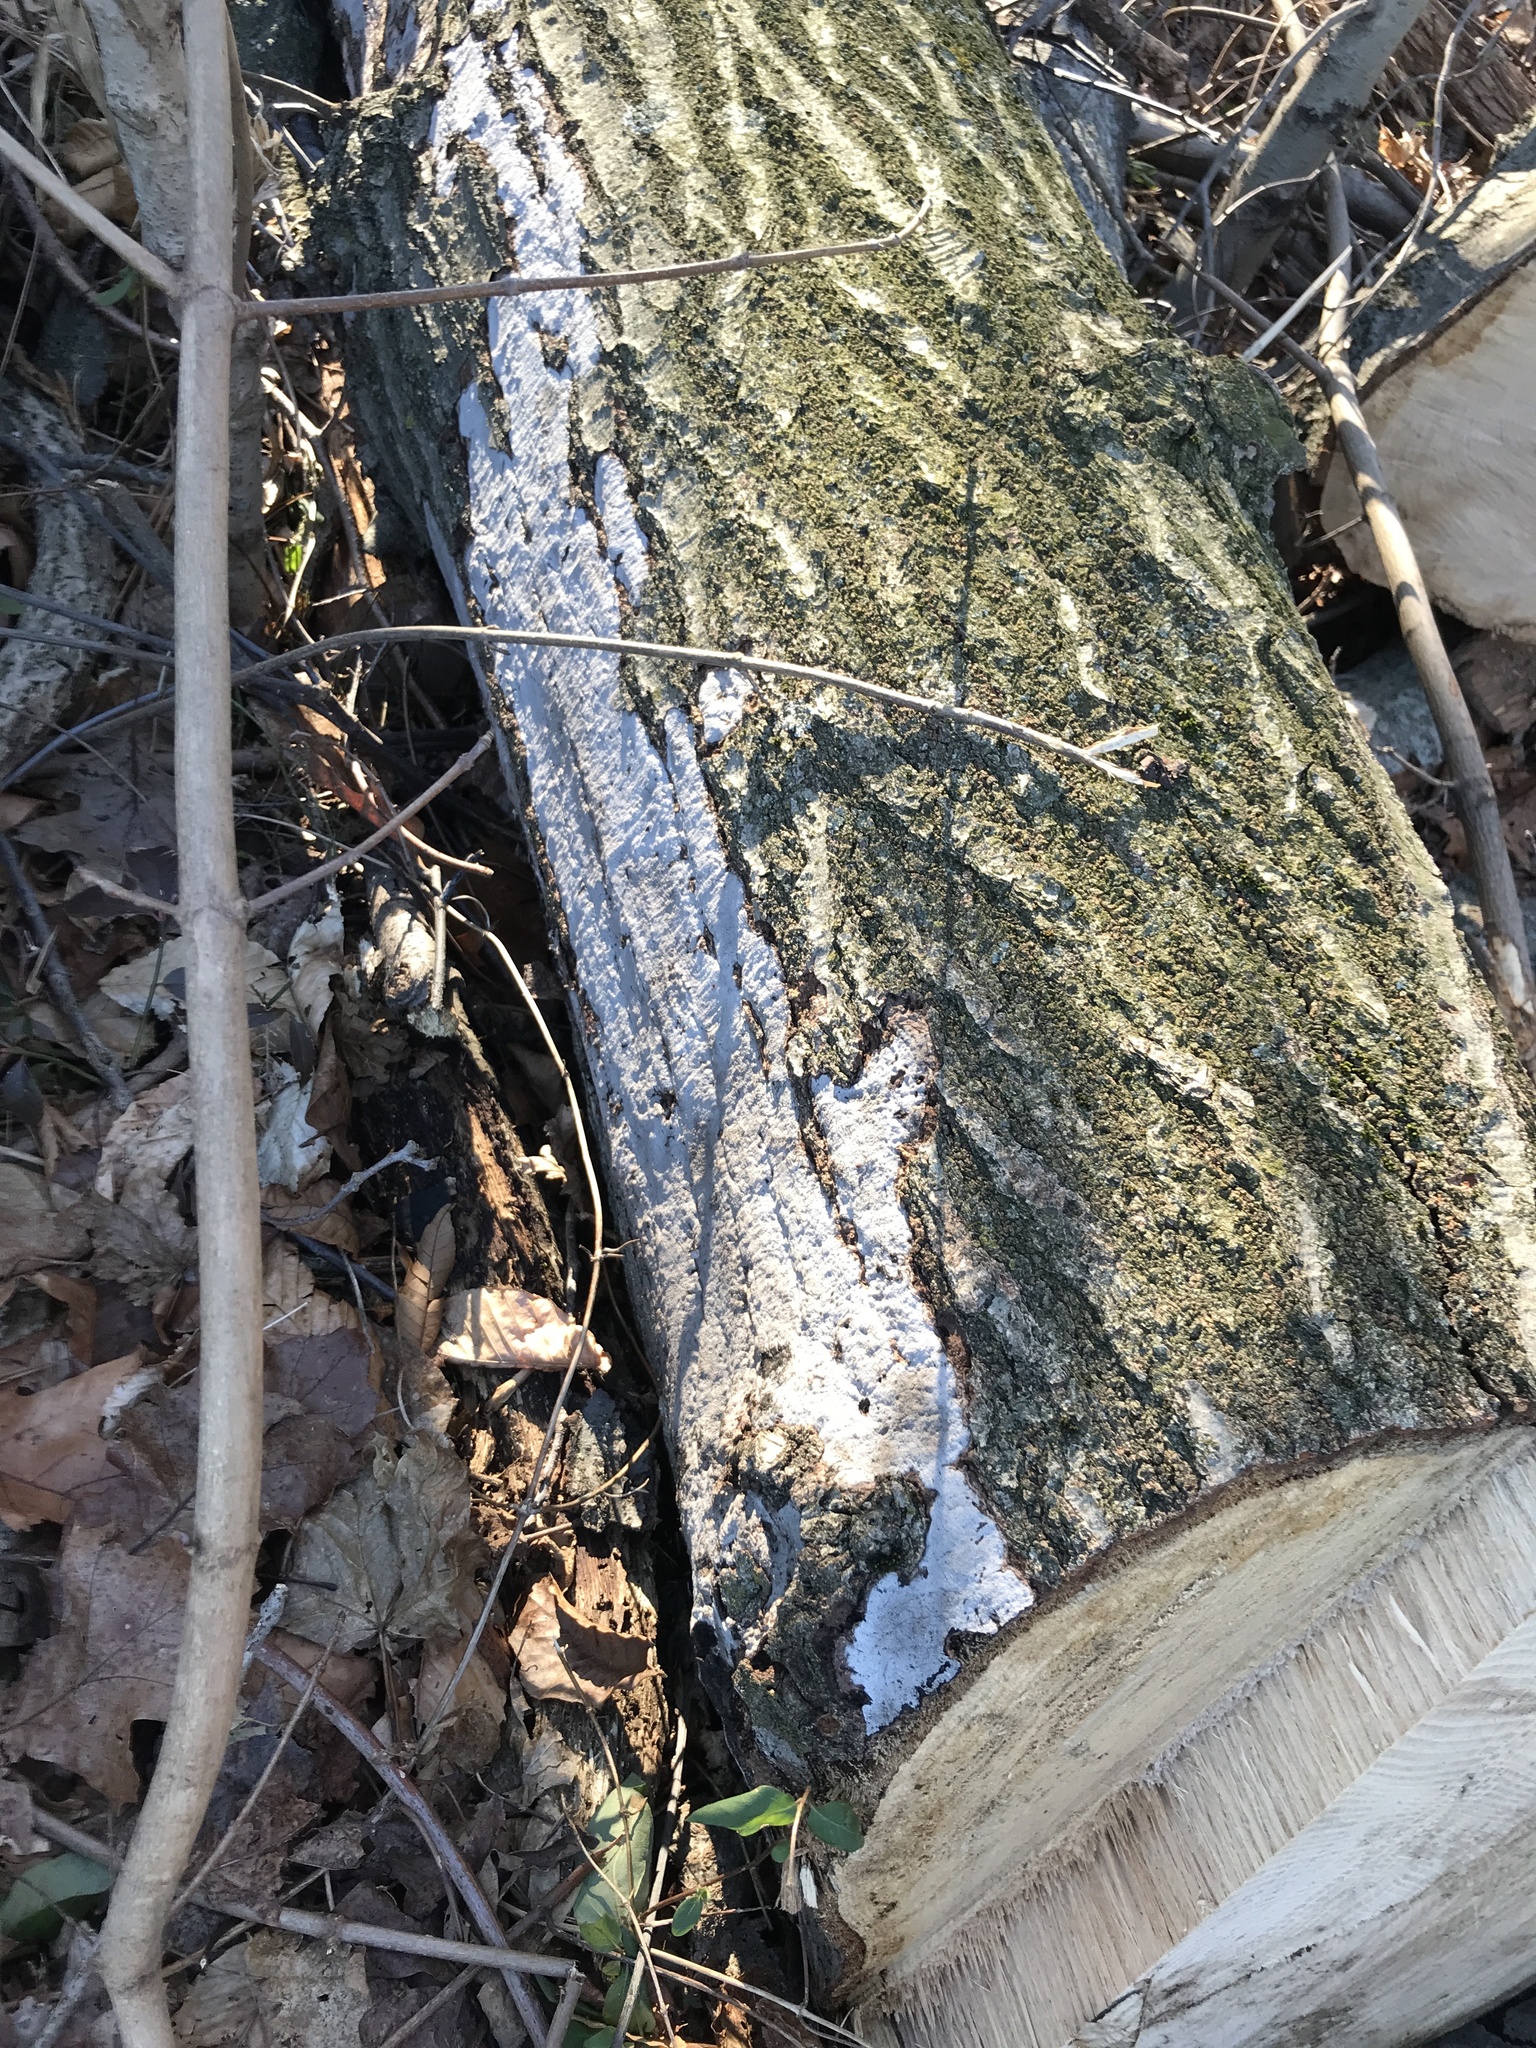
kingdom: Fungi
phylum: Ascomycota
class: Sordariomycetes
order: Xylariales
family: Graphostromataceae
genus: Biscogniauxia
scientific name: Biscogniauxia atropunctata
